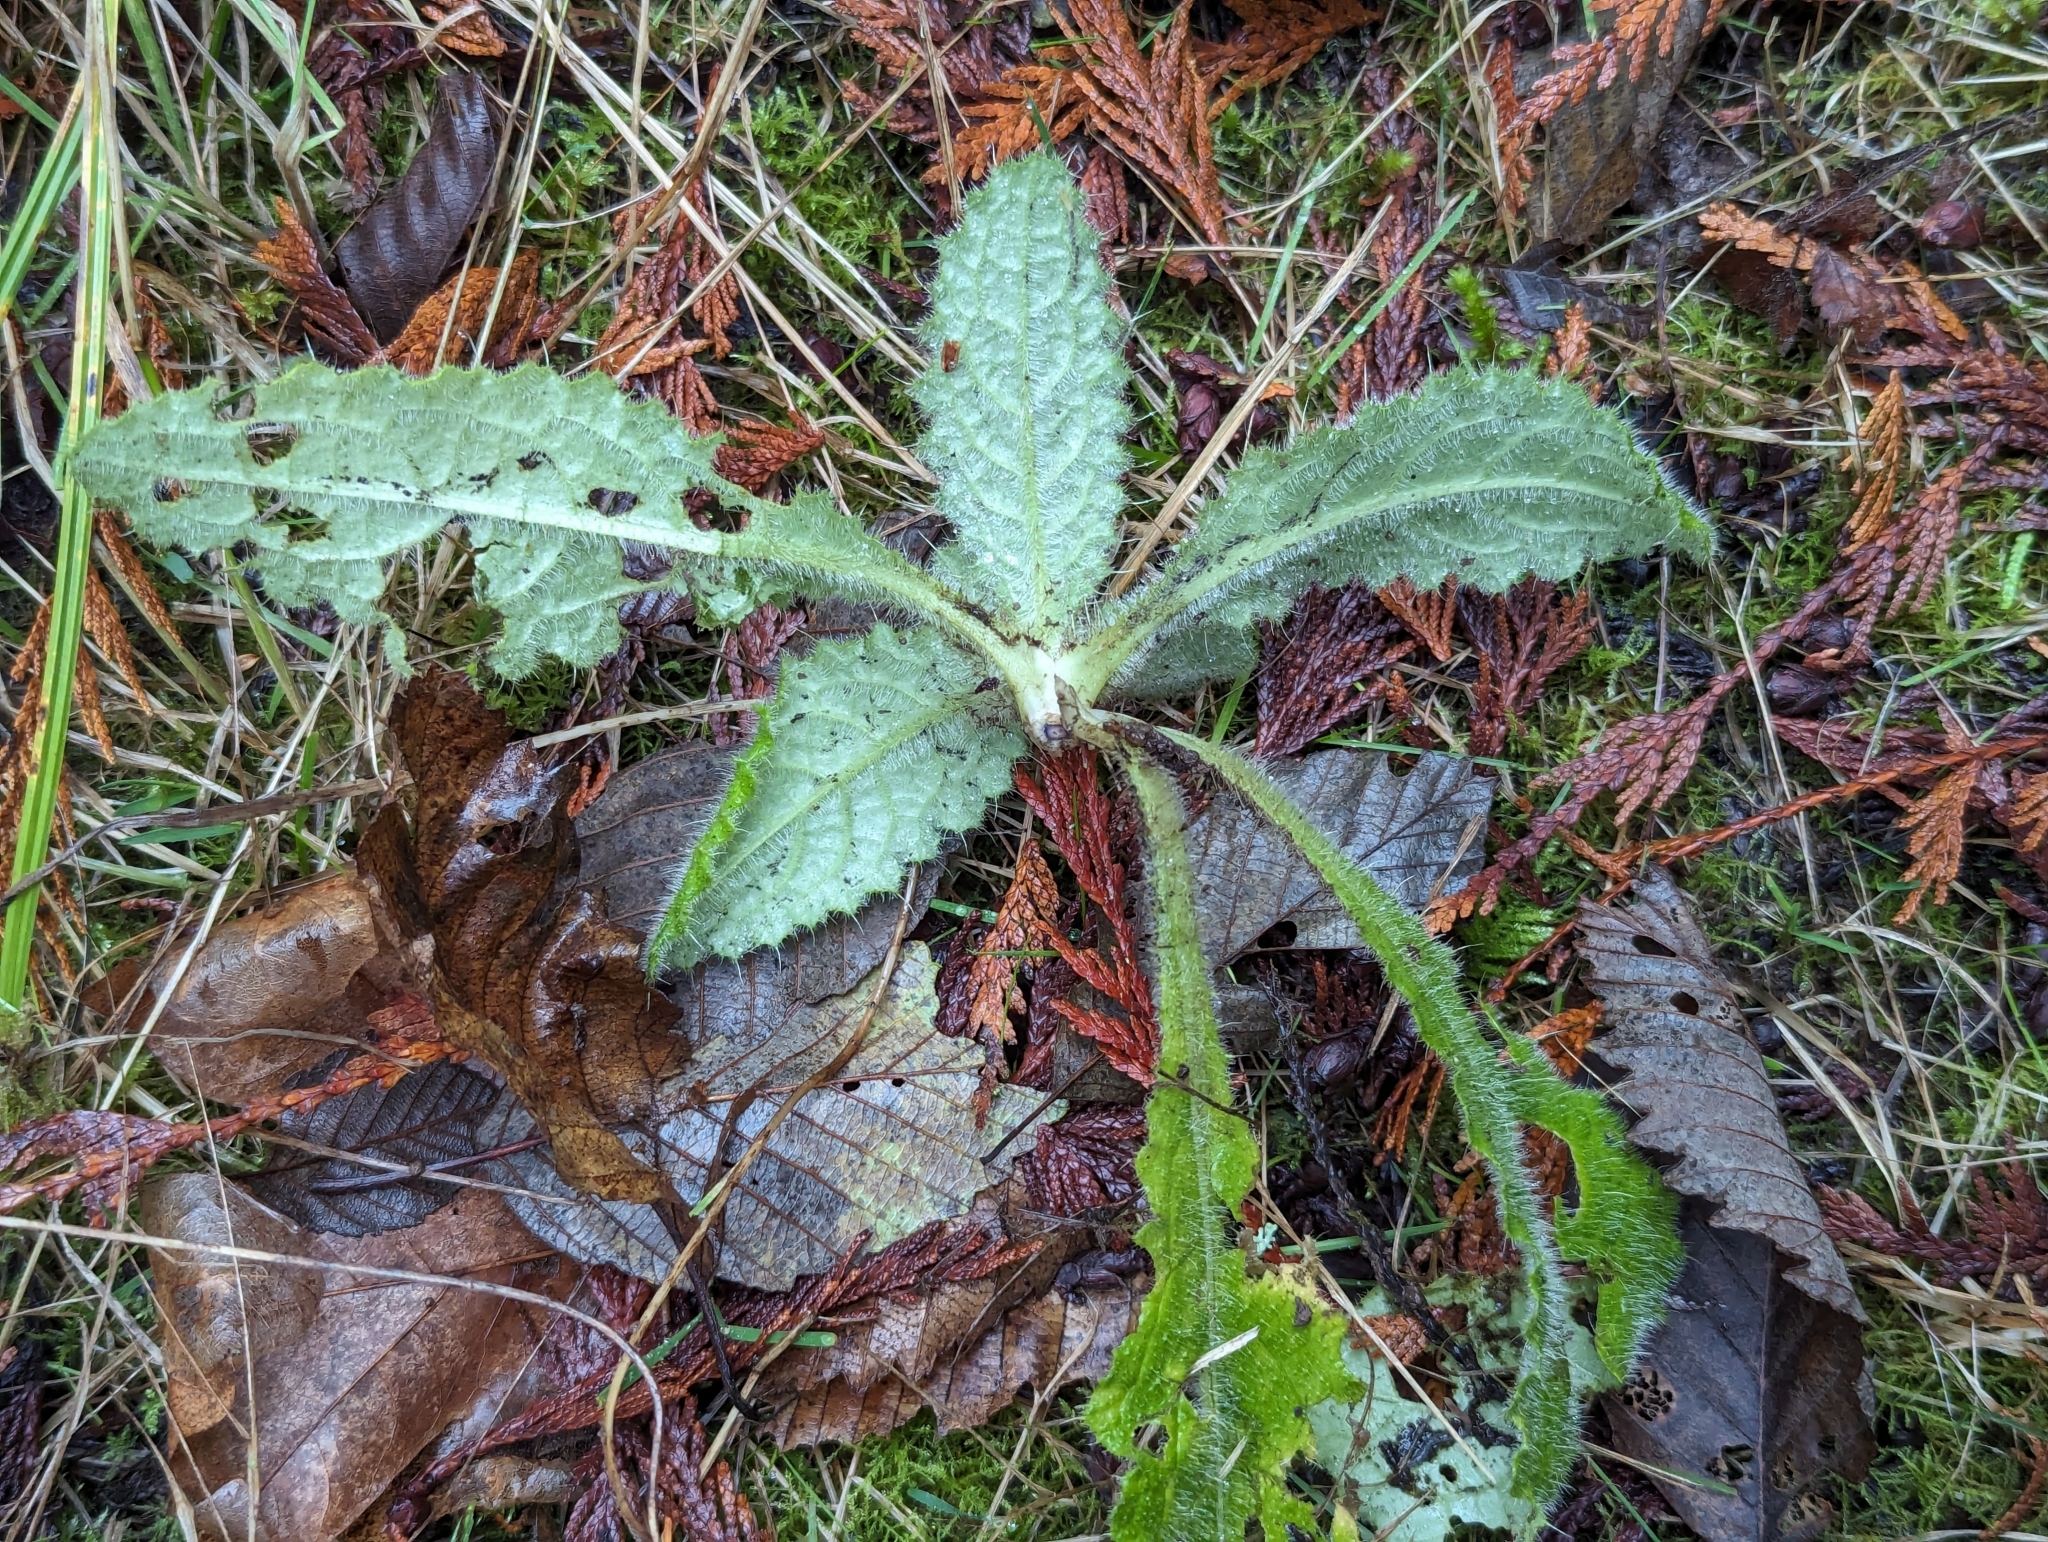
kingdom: Plantae
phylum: Tracheophyta
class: Magnoliopsida
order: Asterales
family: Asteraceae
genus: Cirsium
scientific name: Cirsium vulgare
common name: Bull thistle
